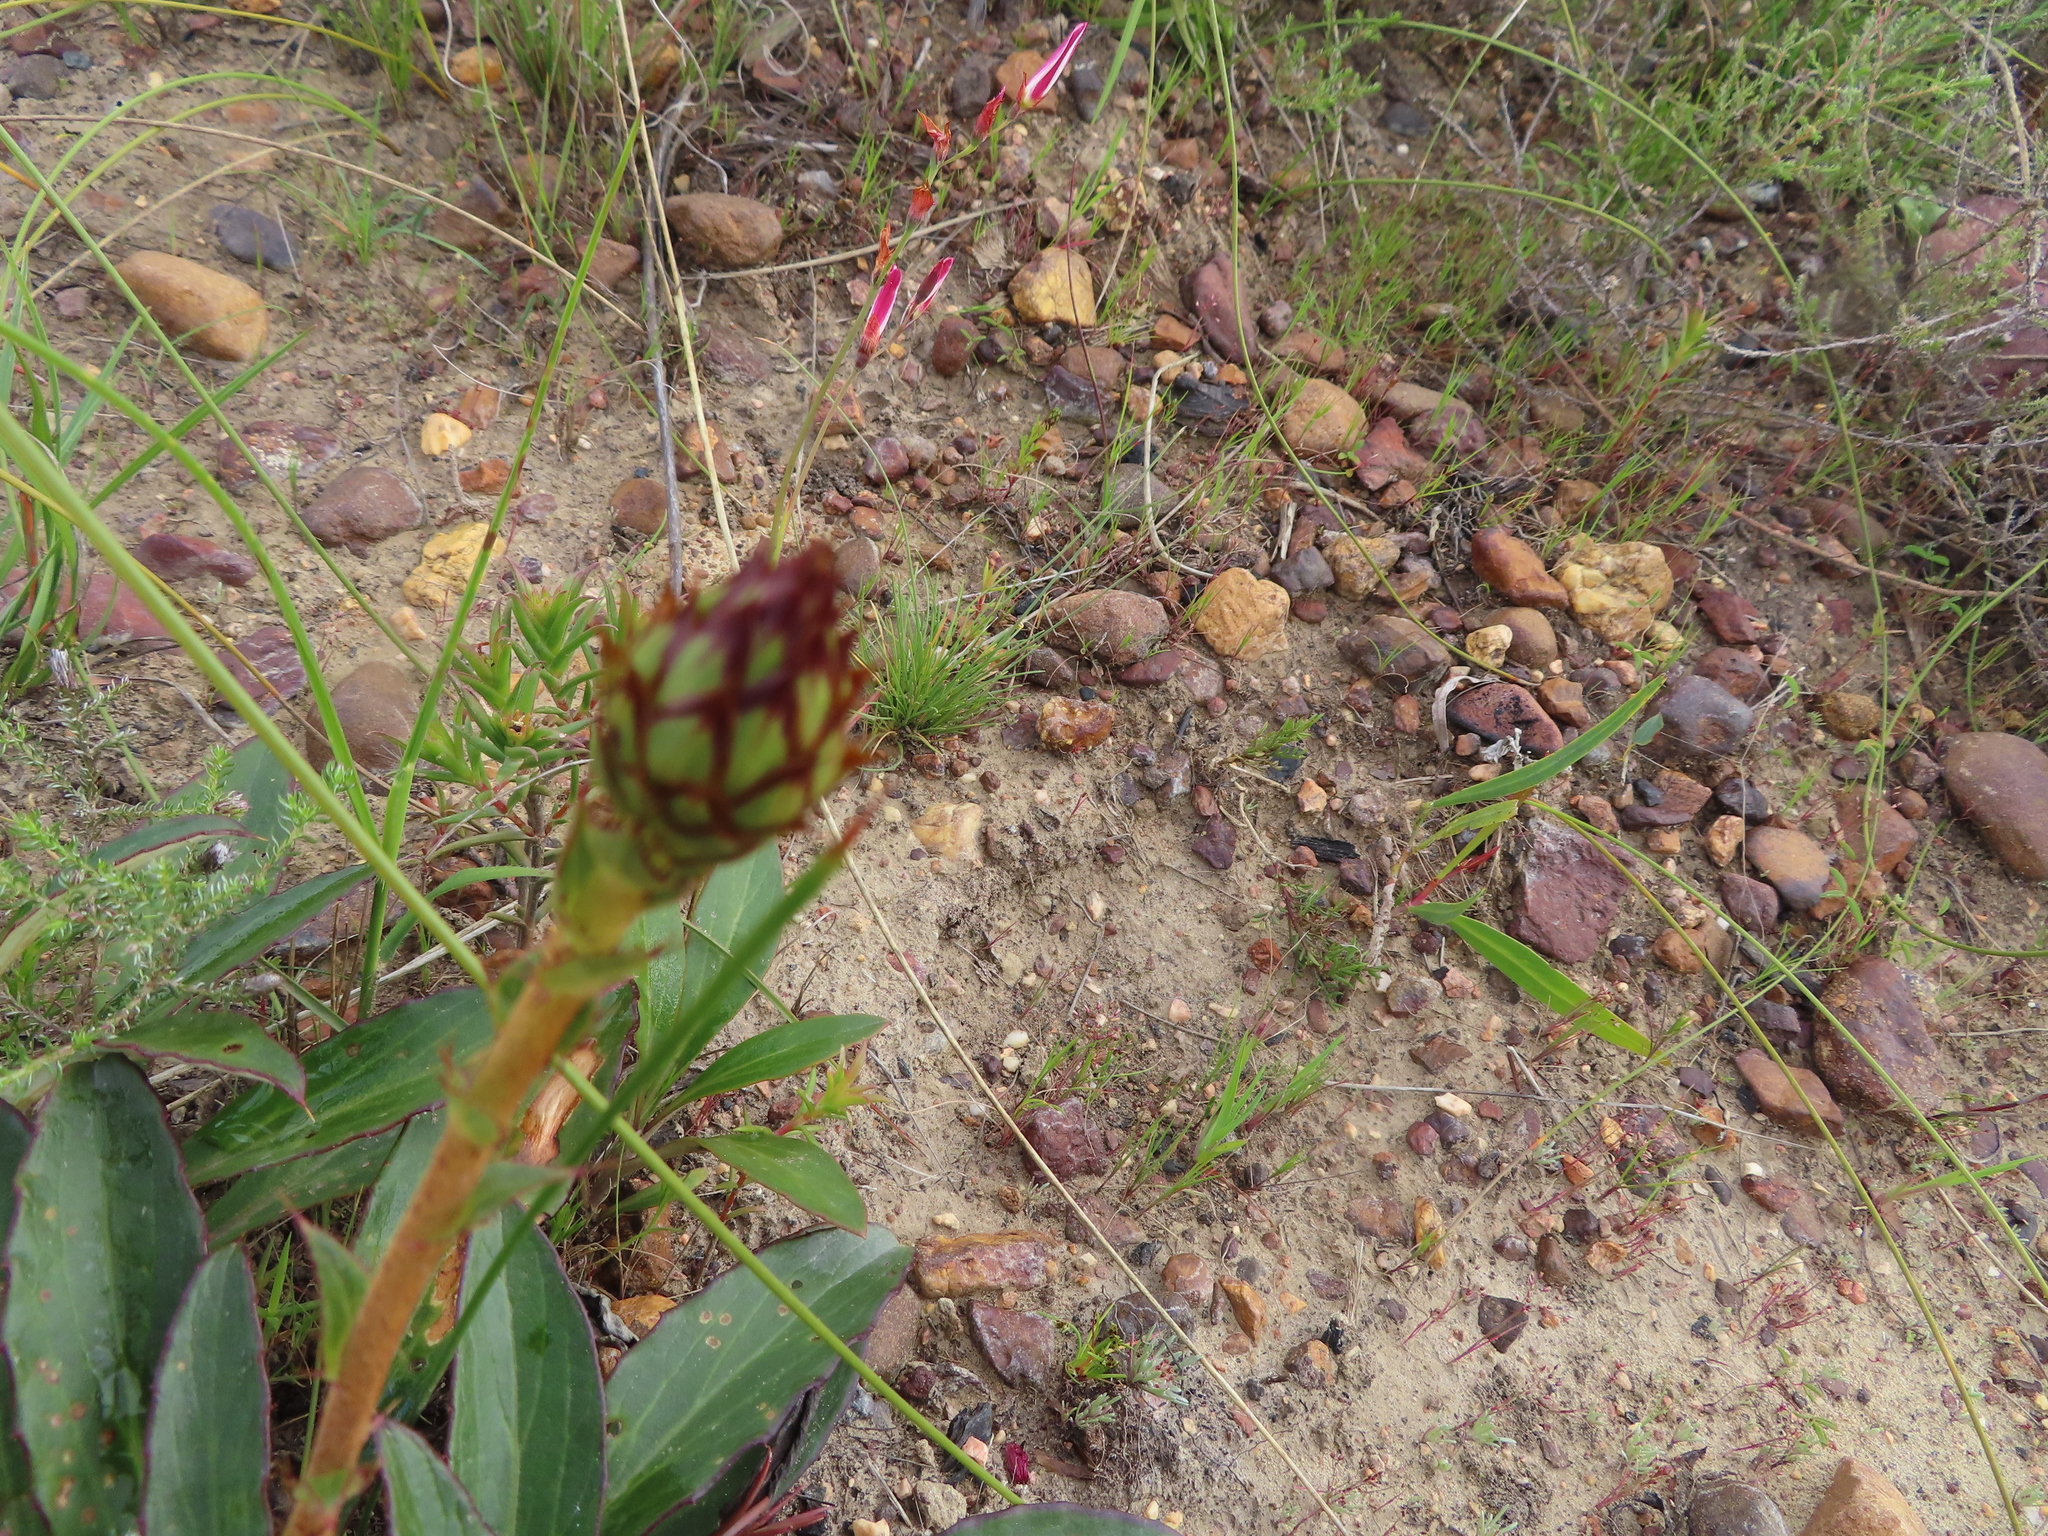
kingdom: Plantae
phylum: Tracheophyta
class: Magnoliopsida
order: Asterales
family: Asteraceae
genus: Berkheya
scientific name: Berkheya herbacea
